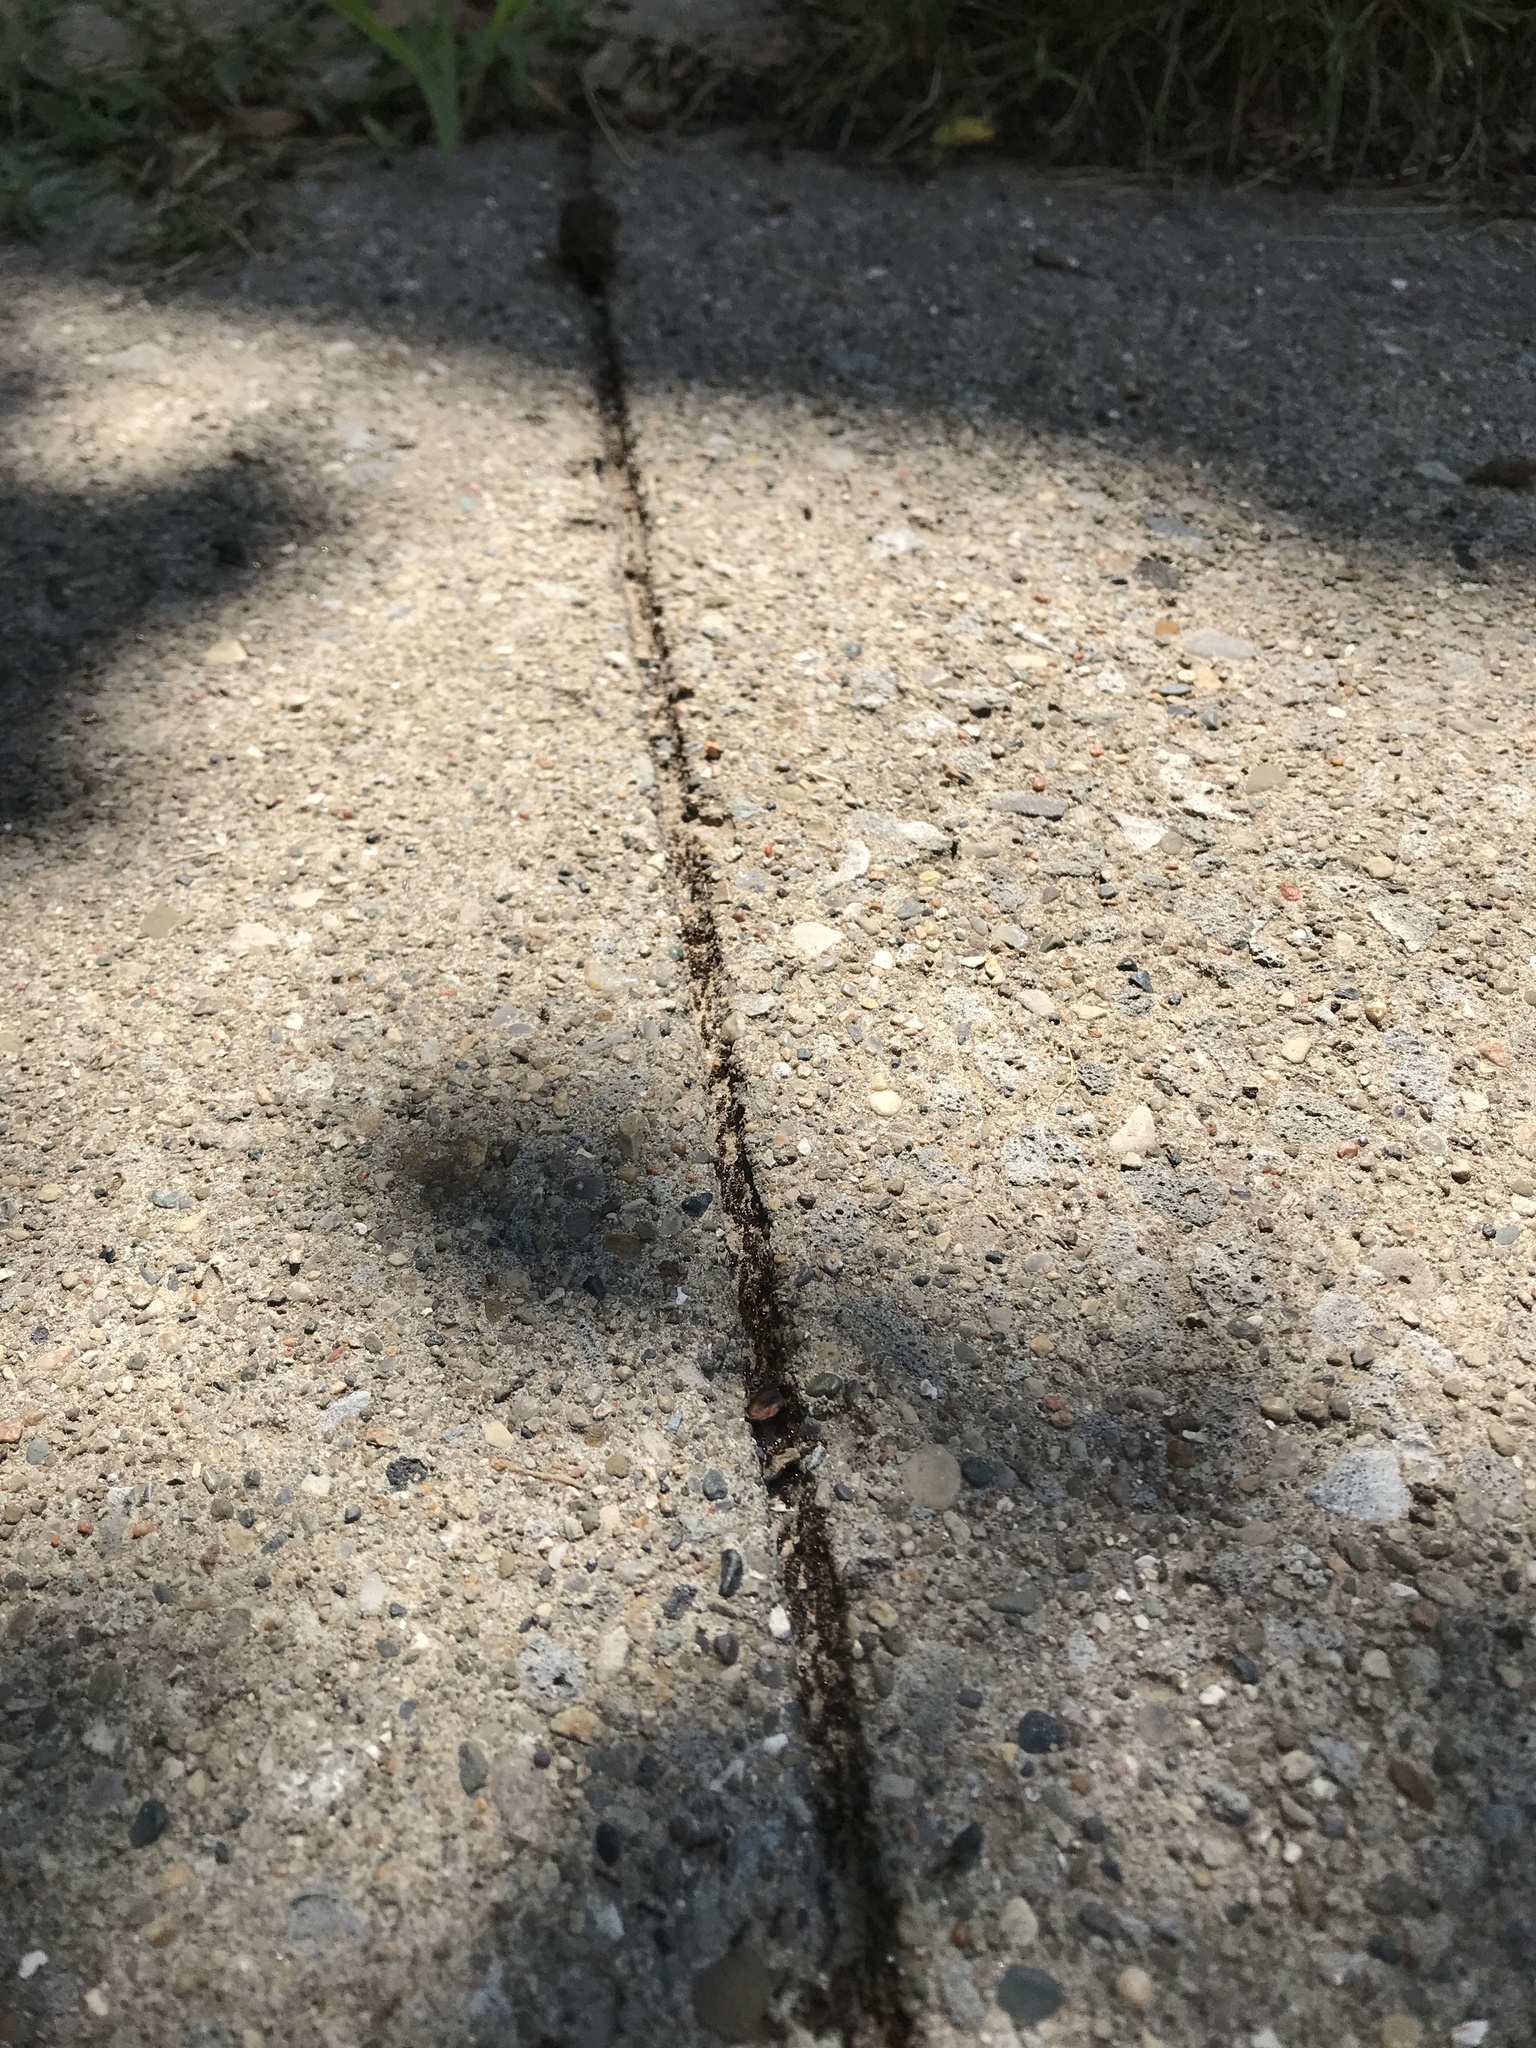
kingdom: Animalia
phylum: Arthropoda
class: Insecta
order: Hymenoptera
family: Formicidae
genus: Tetramorium
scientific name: Tetramorium immigrans
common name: Pavement ant
